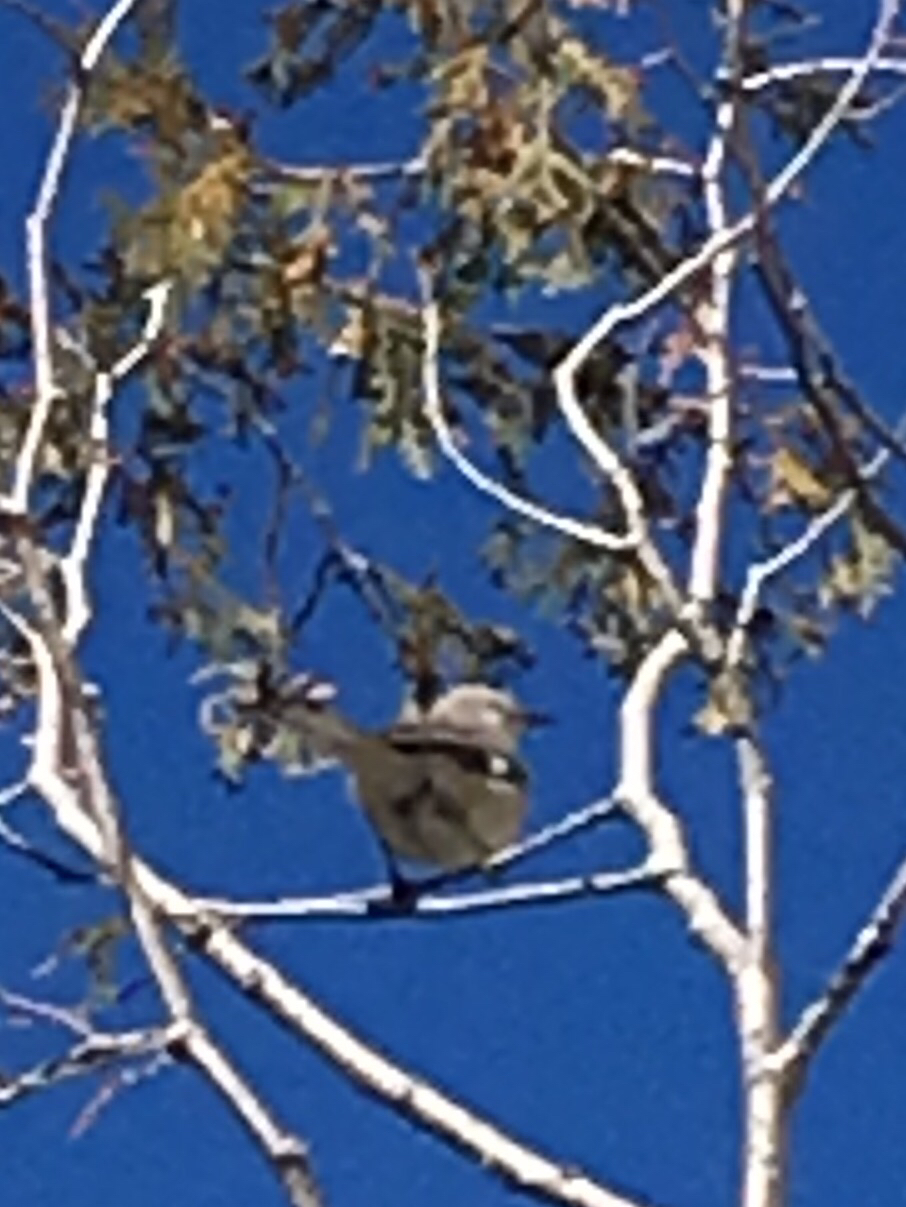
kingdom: Animalia
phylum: Chordata
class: Aves
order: Passeriformes
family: Mimidae
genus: Mimus
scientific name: Mimus polyglottos
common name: Northern mockingbird
